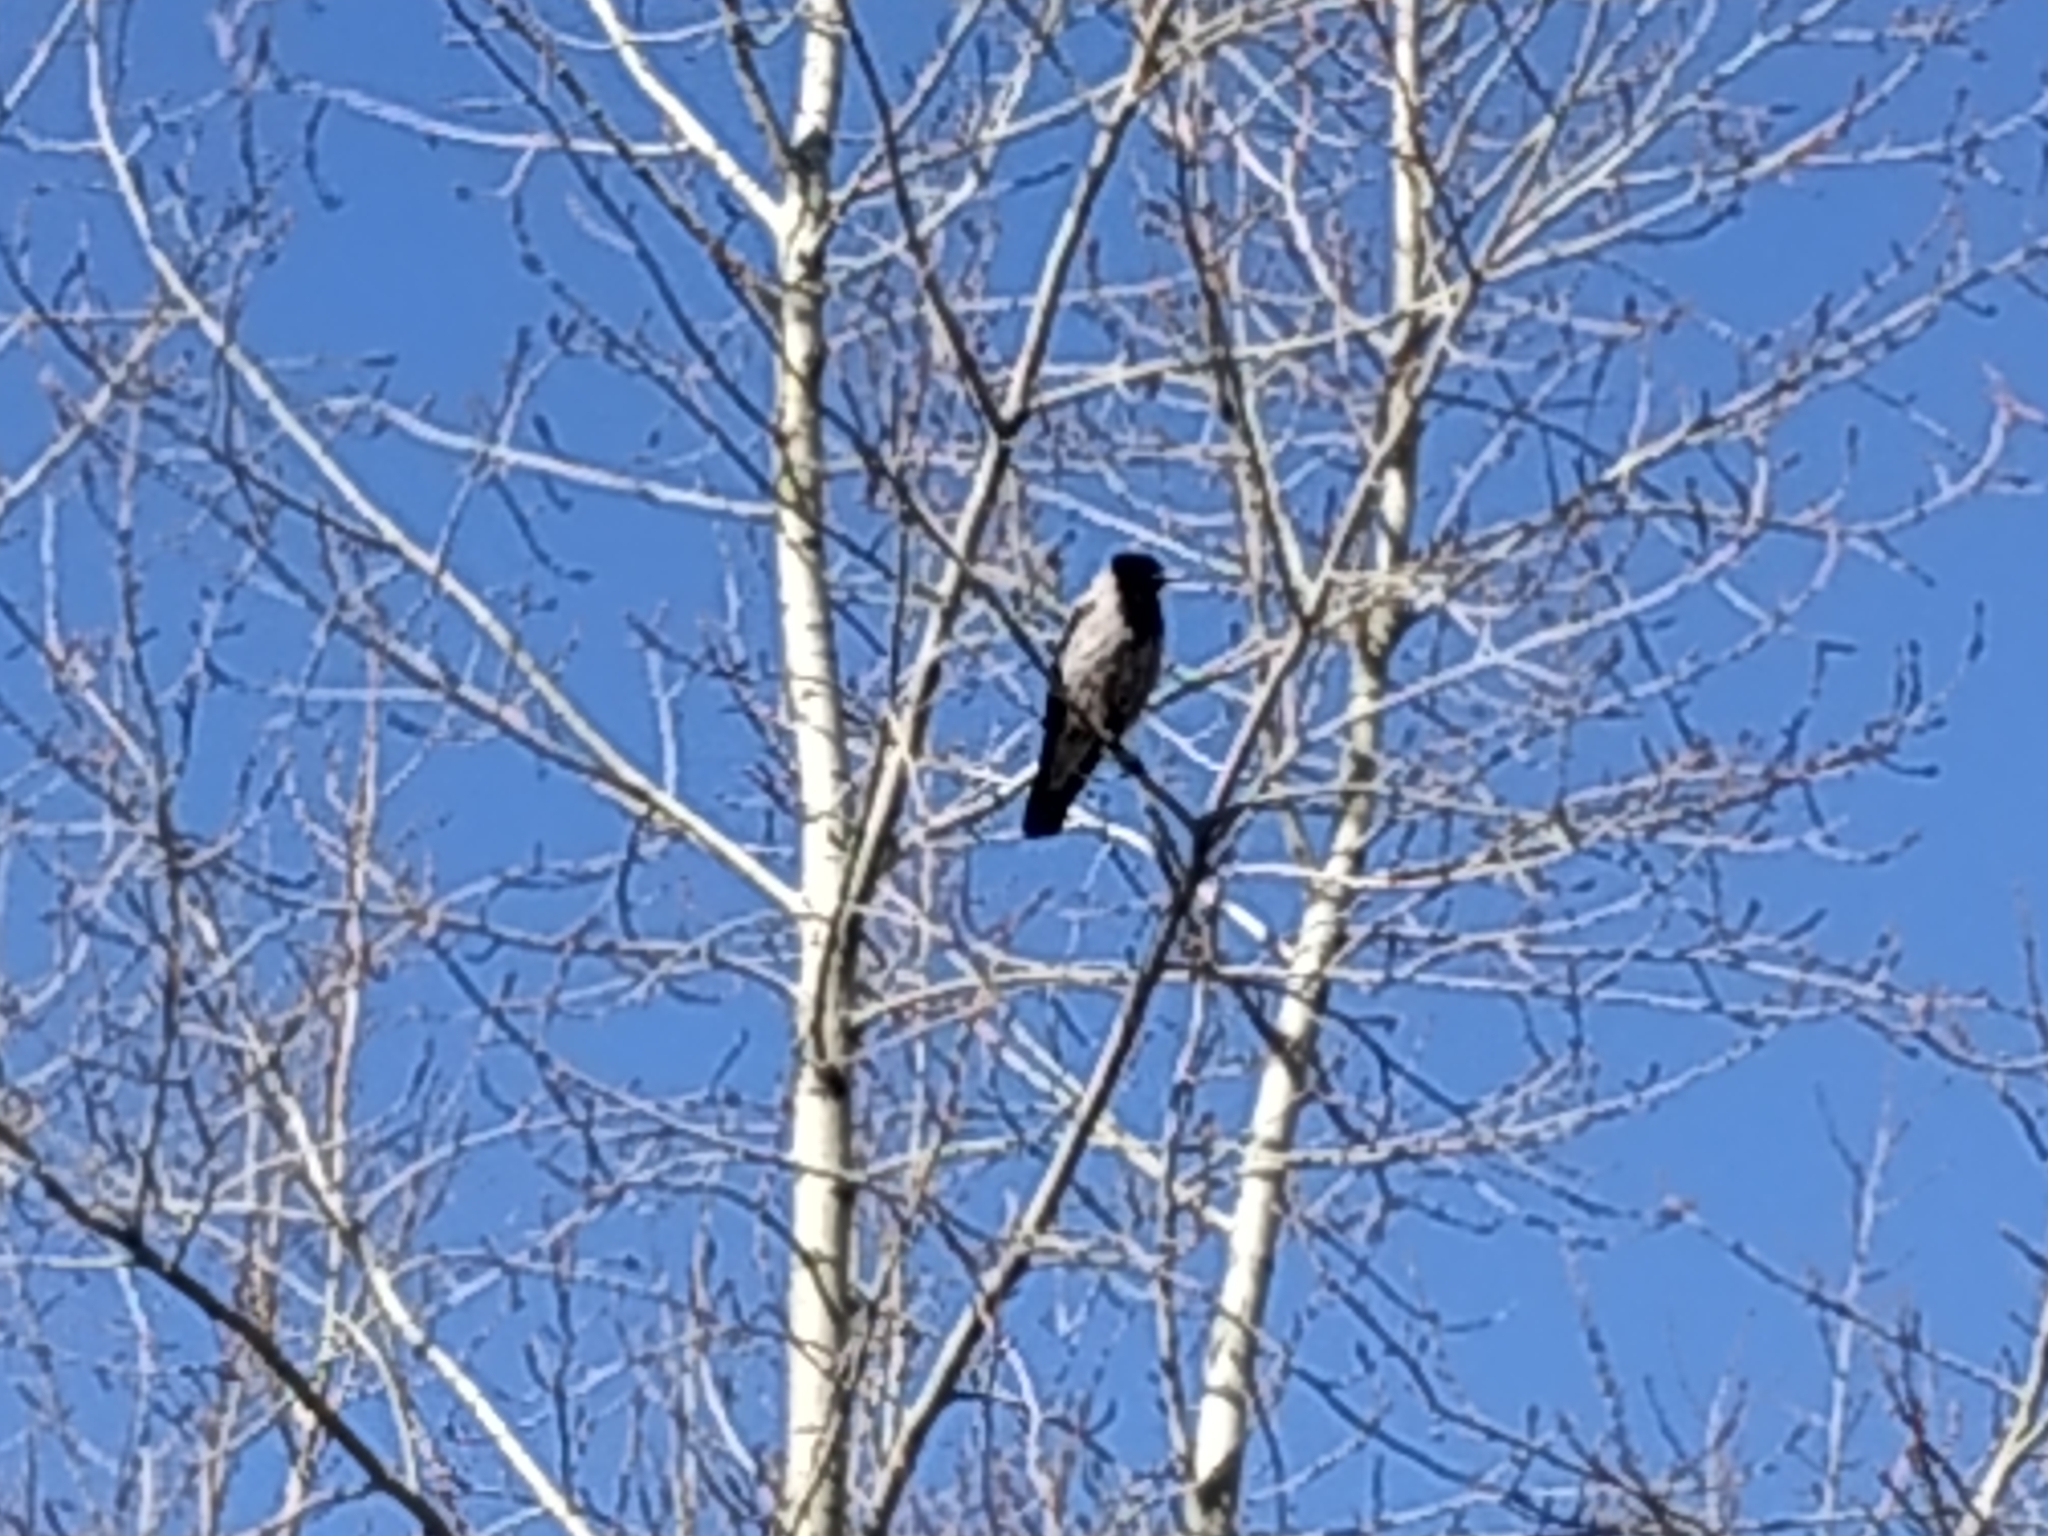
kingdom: Animalia
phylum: Chordata
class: Aves
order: Passeriformes
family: Corvidae
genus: Corvus
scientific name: Corvus cornix
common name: Hooded crow
